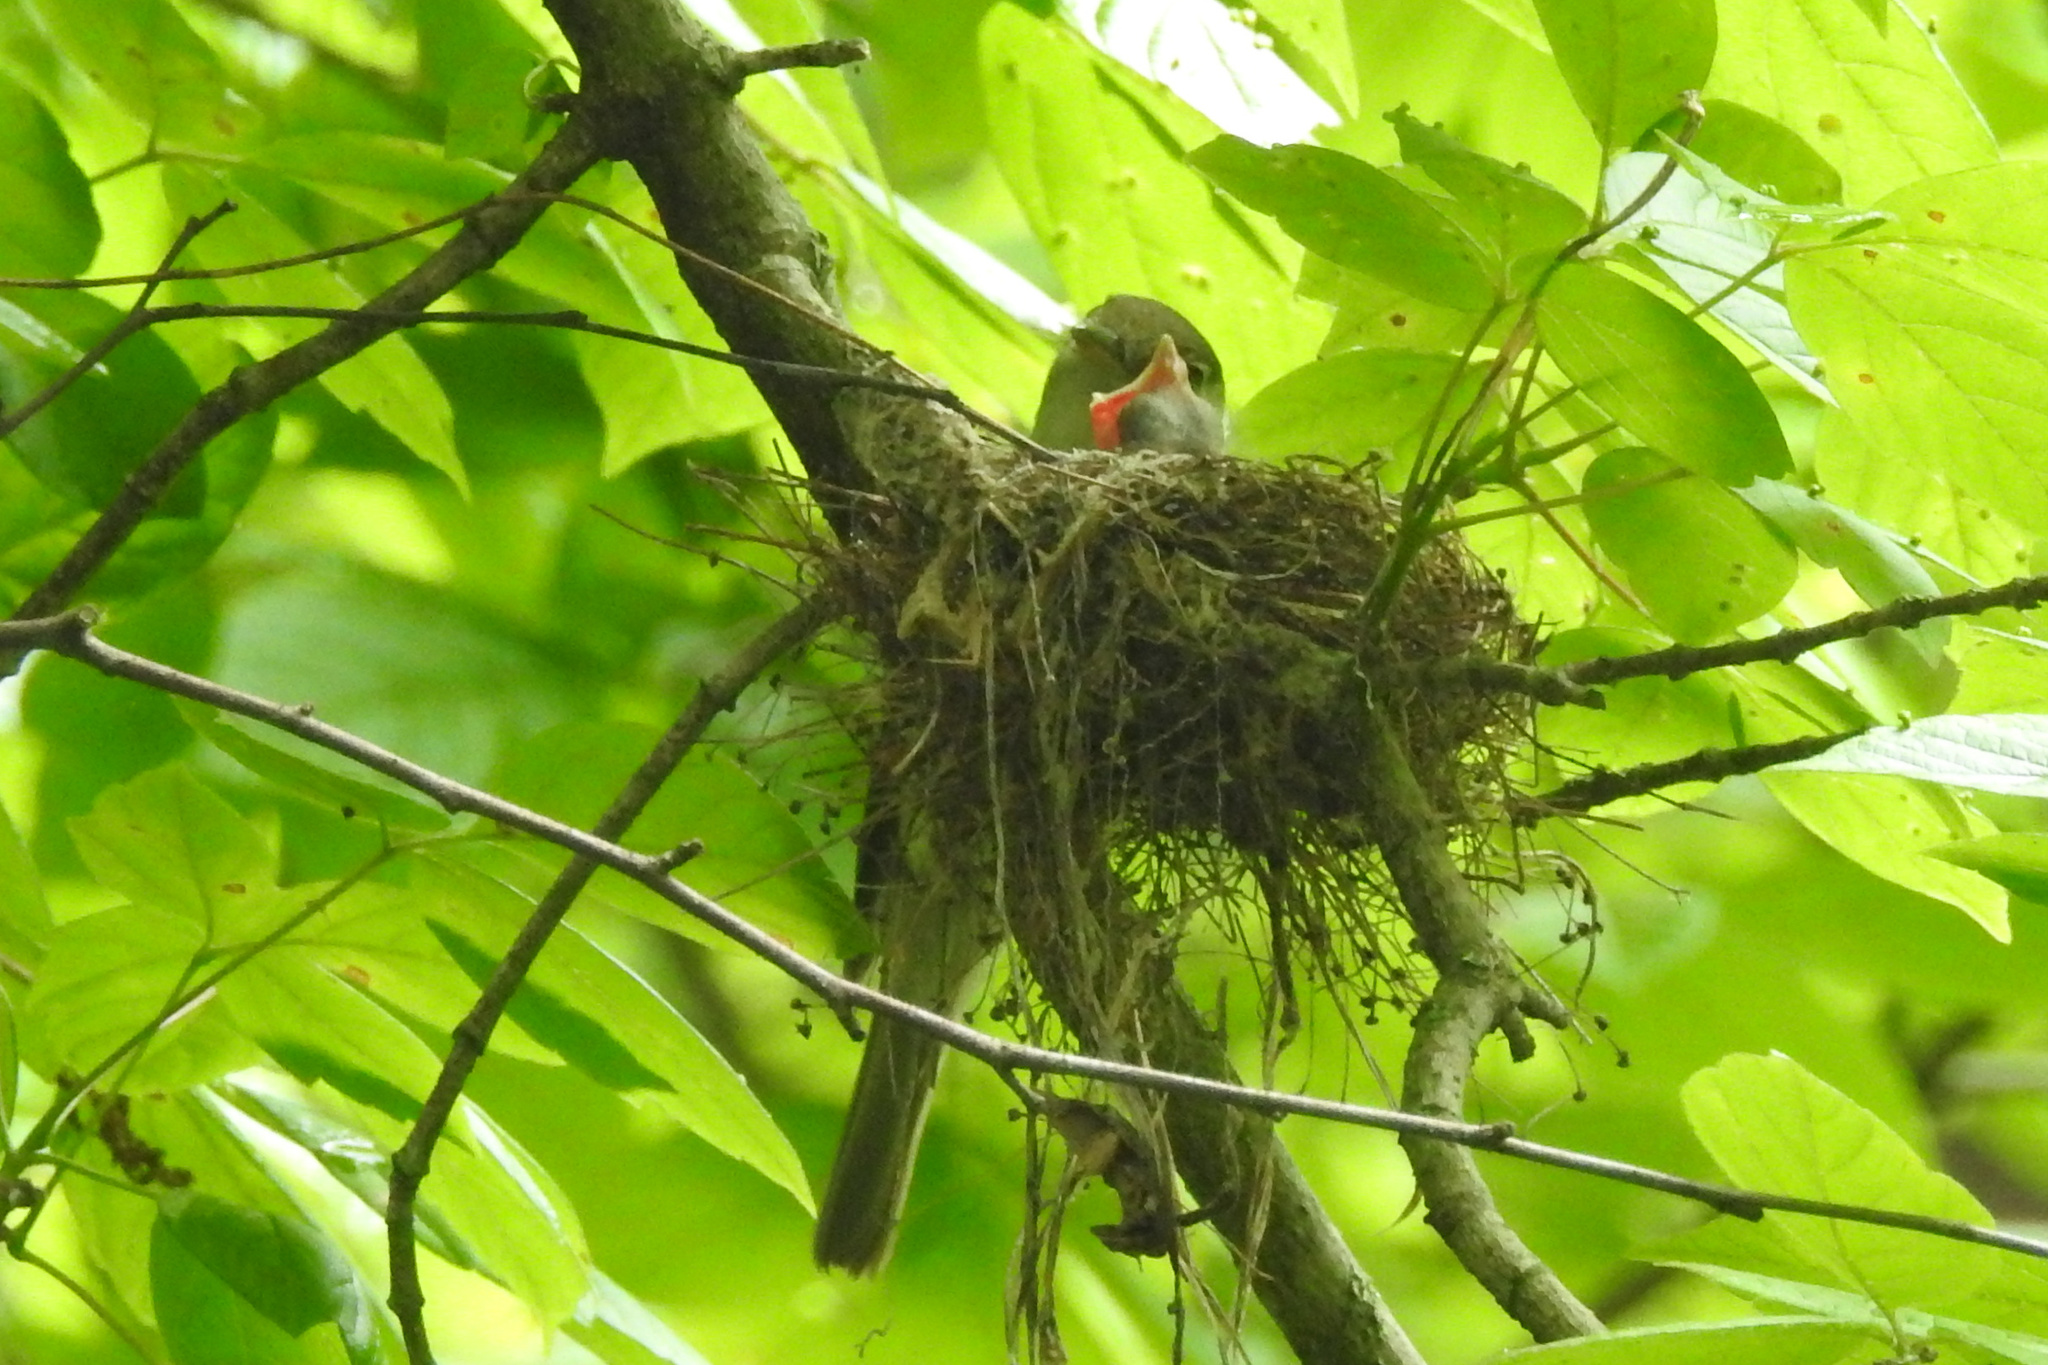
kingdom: Animalia
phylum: Chordata
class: Aves
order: Passeriformes
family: Tyrannidae
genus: Empidonax
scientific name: Empidonax virescens
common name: Acadian flycatcher
